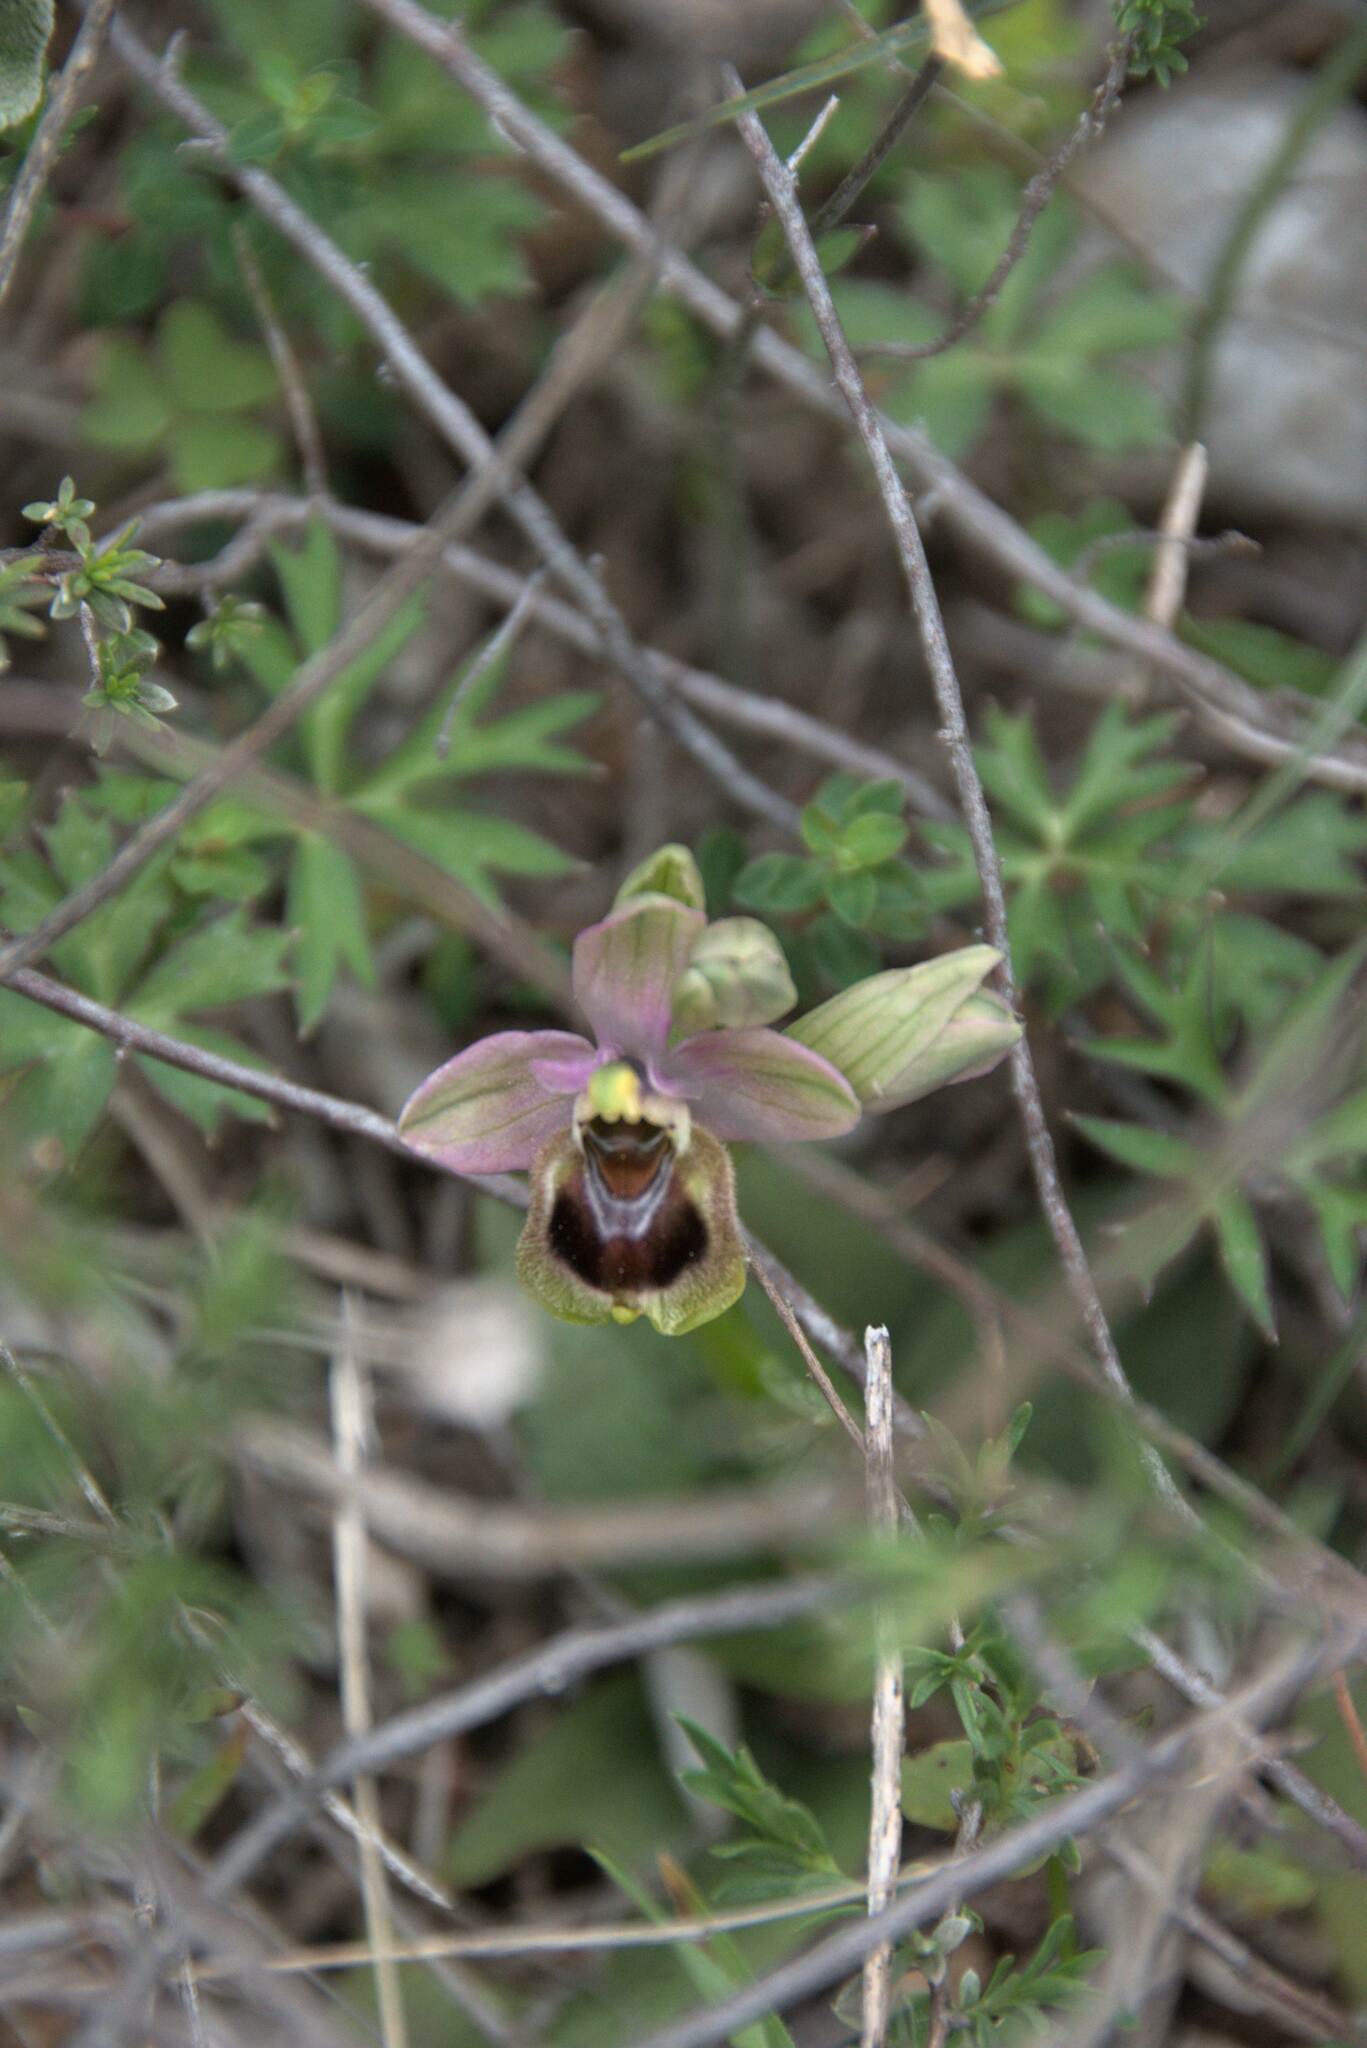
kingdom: Plantae
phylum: Tracheophyta
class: Liliopsida
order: Asparagales
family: Orchidaceae
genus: Ophrys
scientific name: Ophrys tenthredinifera
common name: Sawfly orchid
